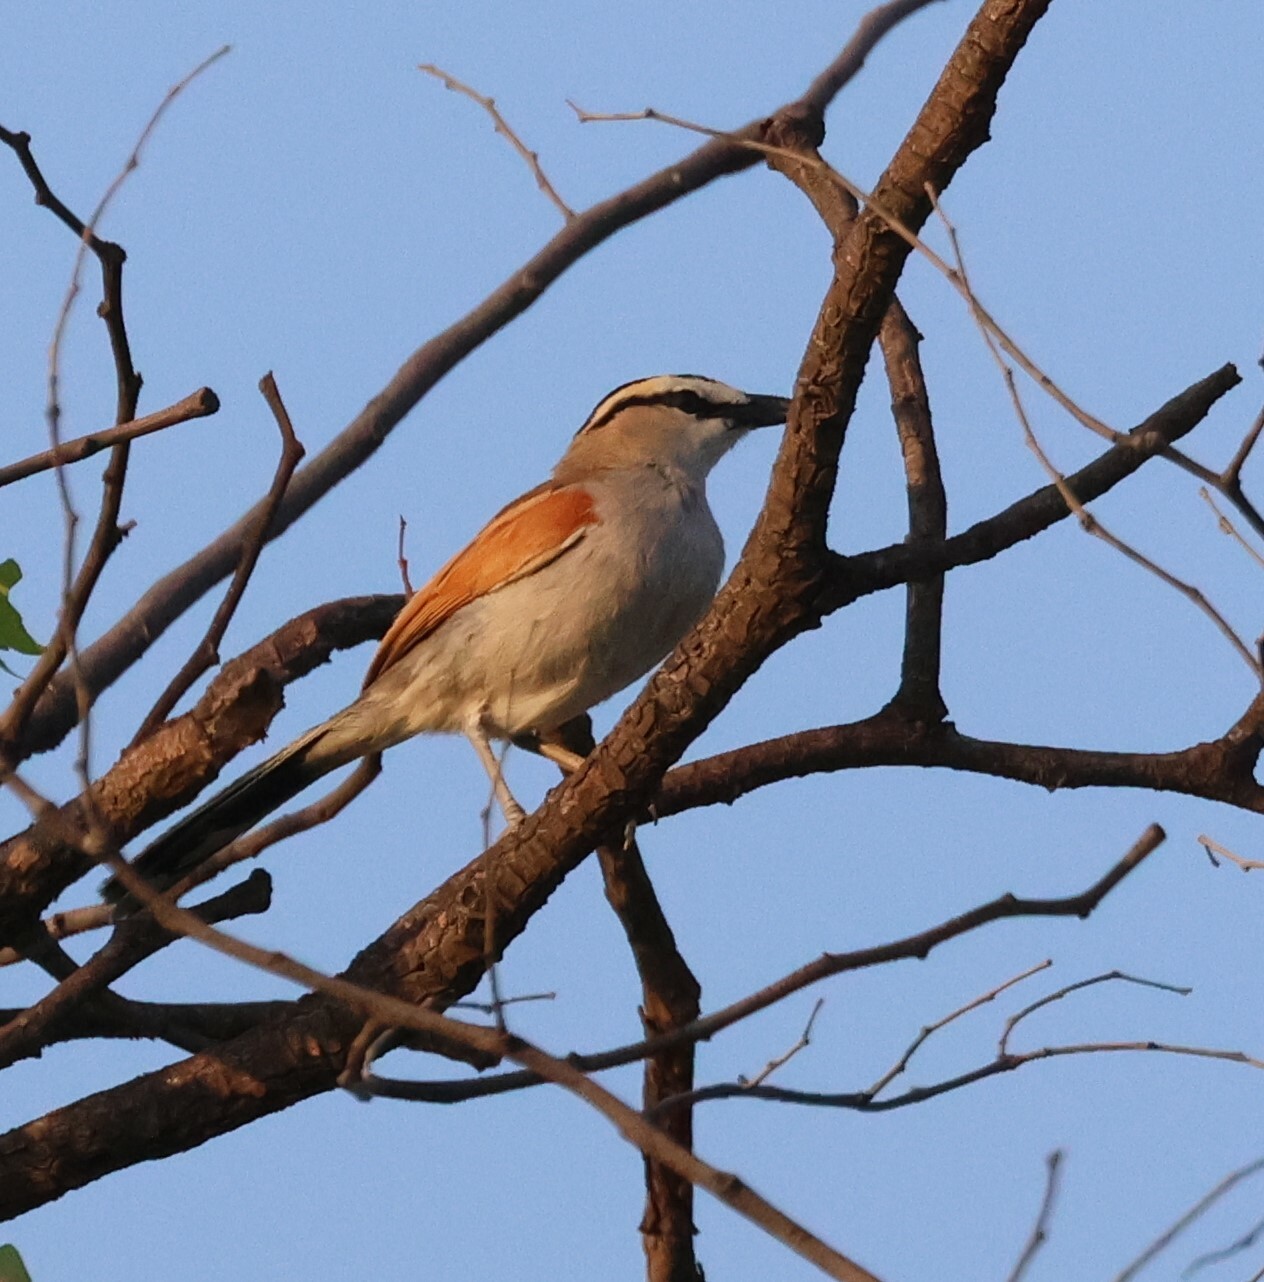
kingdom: Animalia
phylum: Chordata
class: Aves
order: Passeriformes
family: Malaconotidae
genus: Tchagra
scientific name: Tchagra senegalus
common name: Black-crowned tchagra
